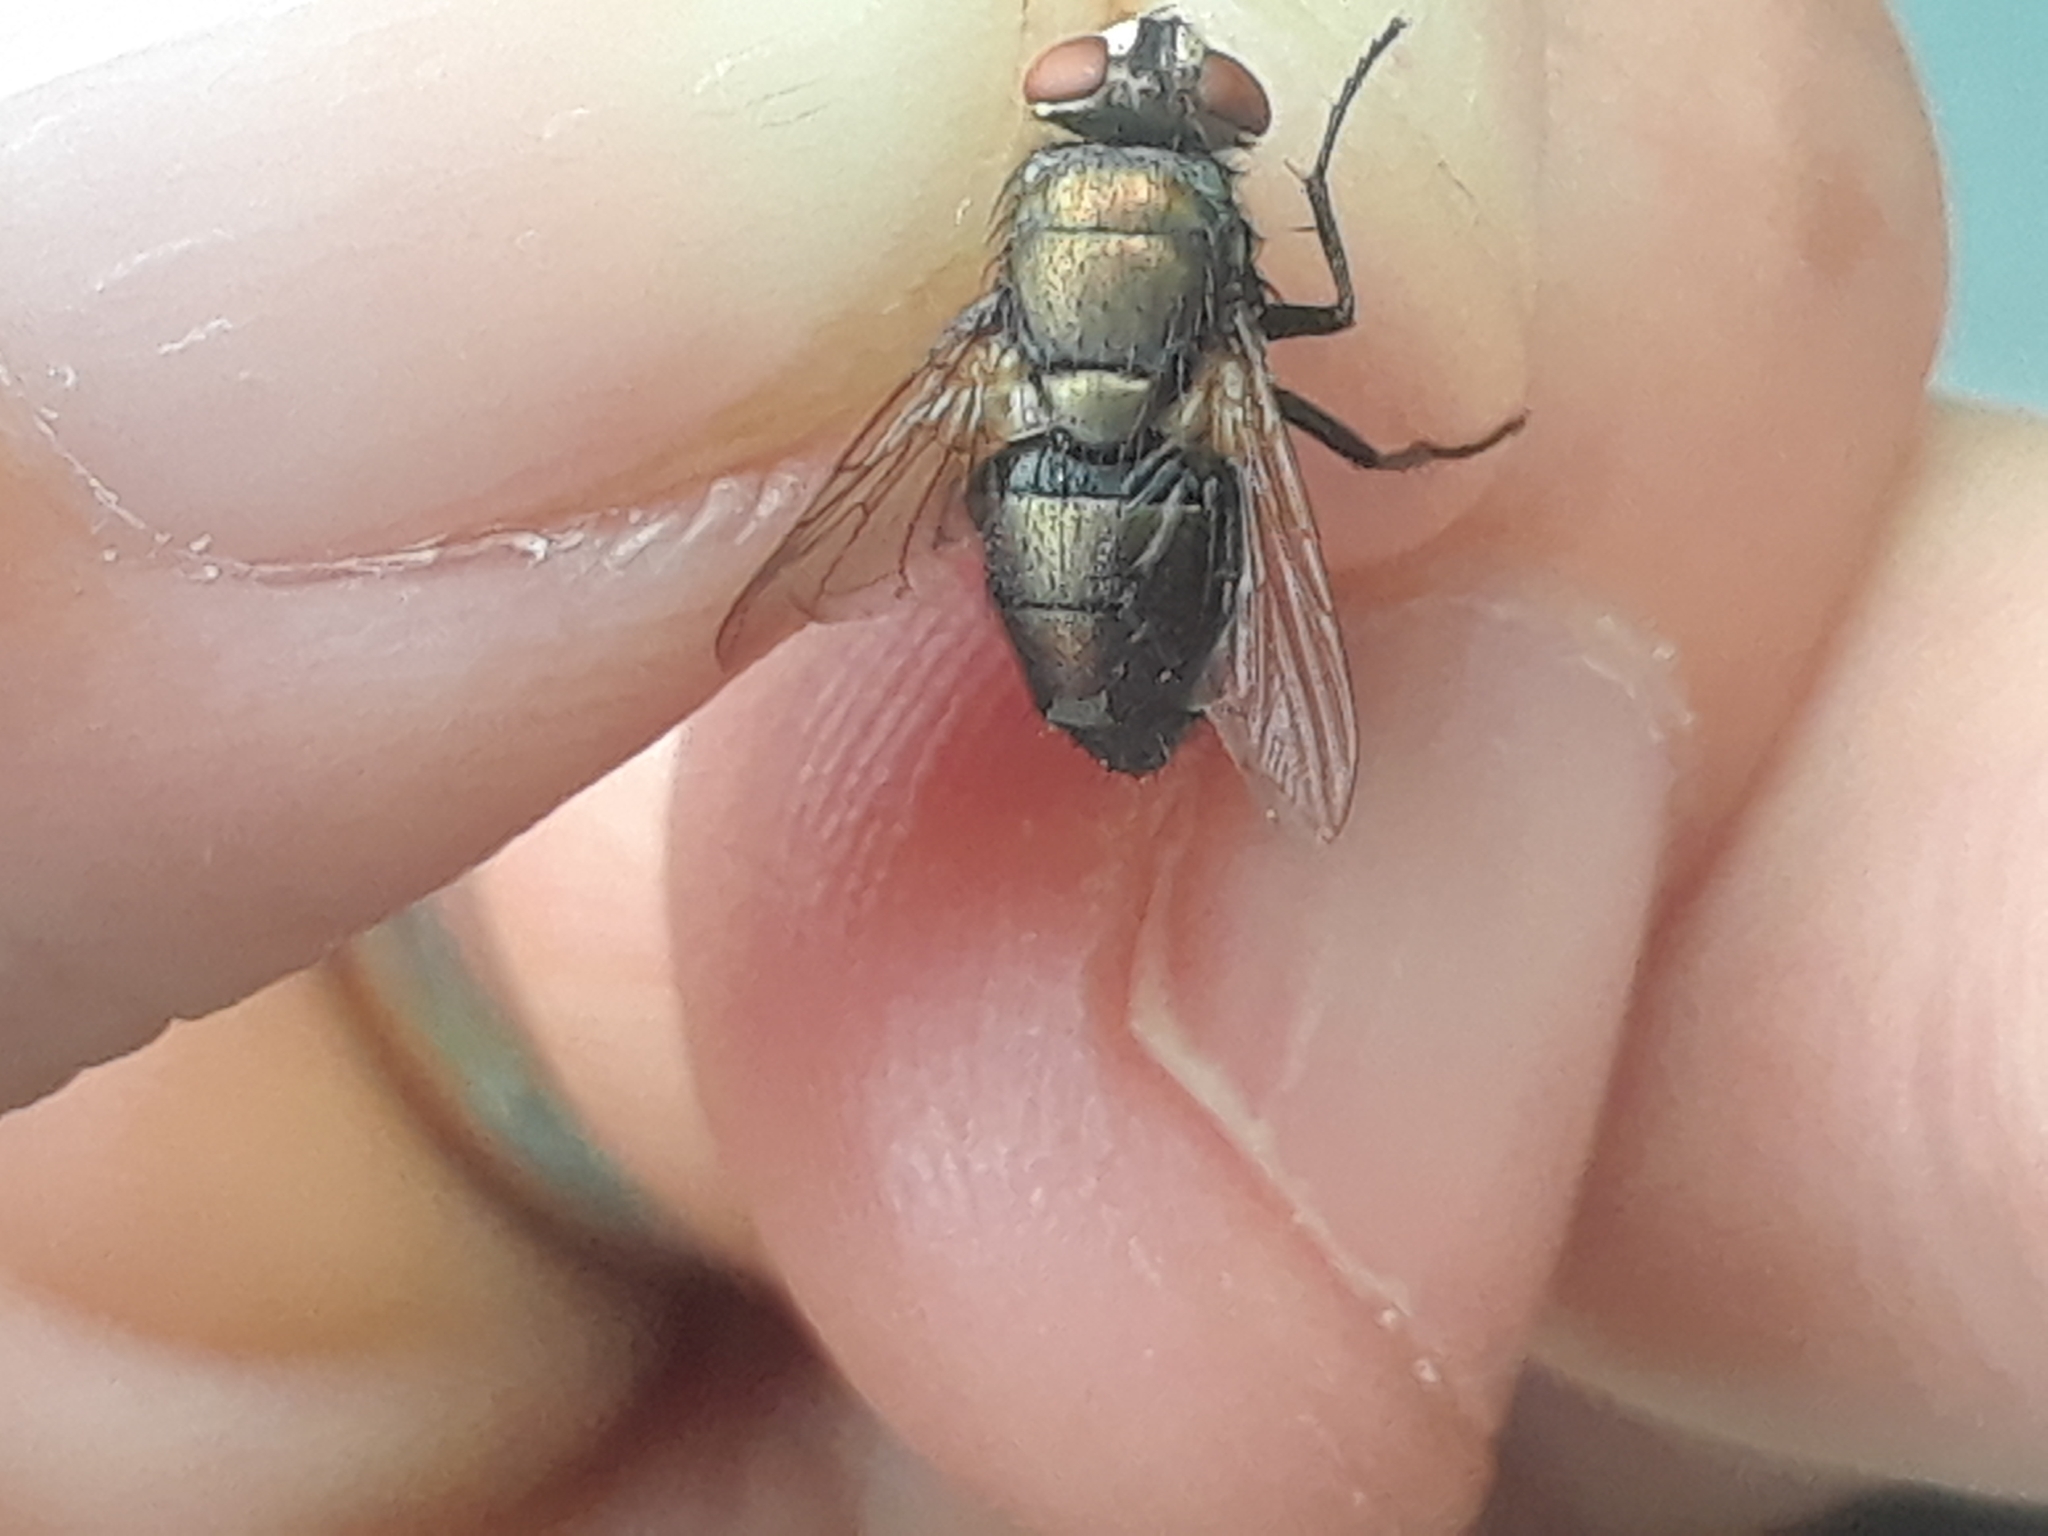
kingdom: Animalia
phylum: Arthropoda
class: Insecta
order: Diptera
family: Calliphoridae
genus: Lucilia
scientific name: Lucilia cuprina
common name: Sheep blow fly
